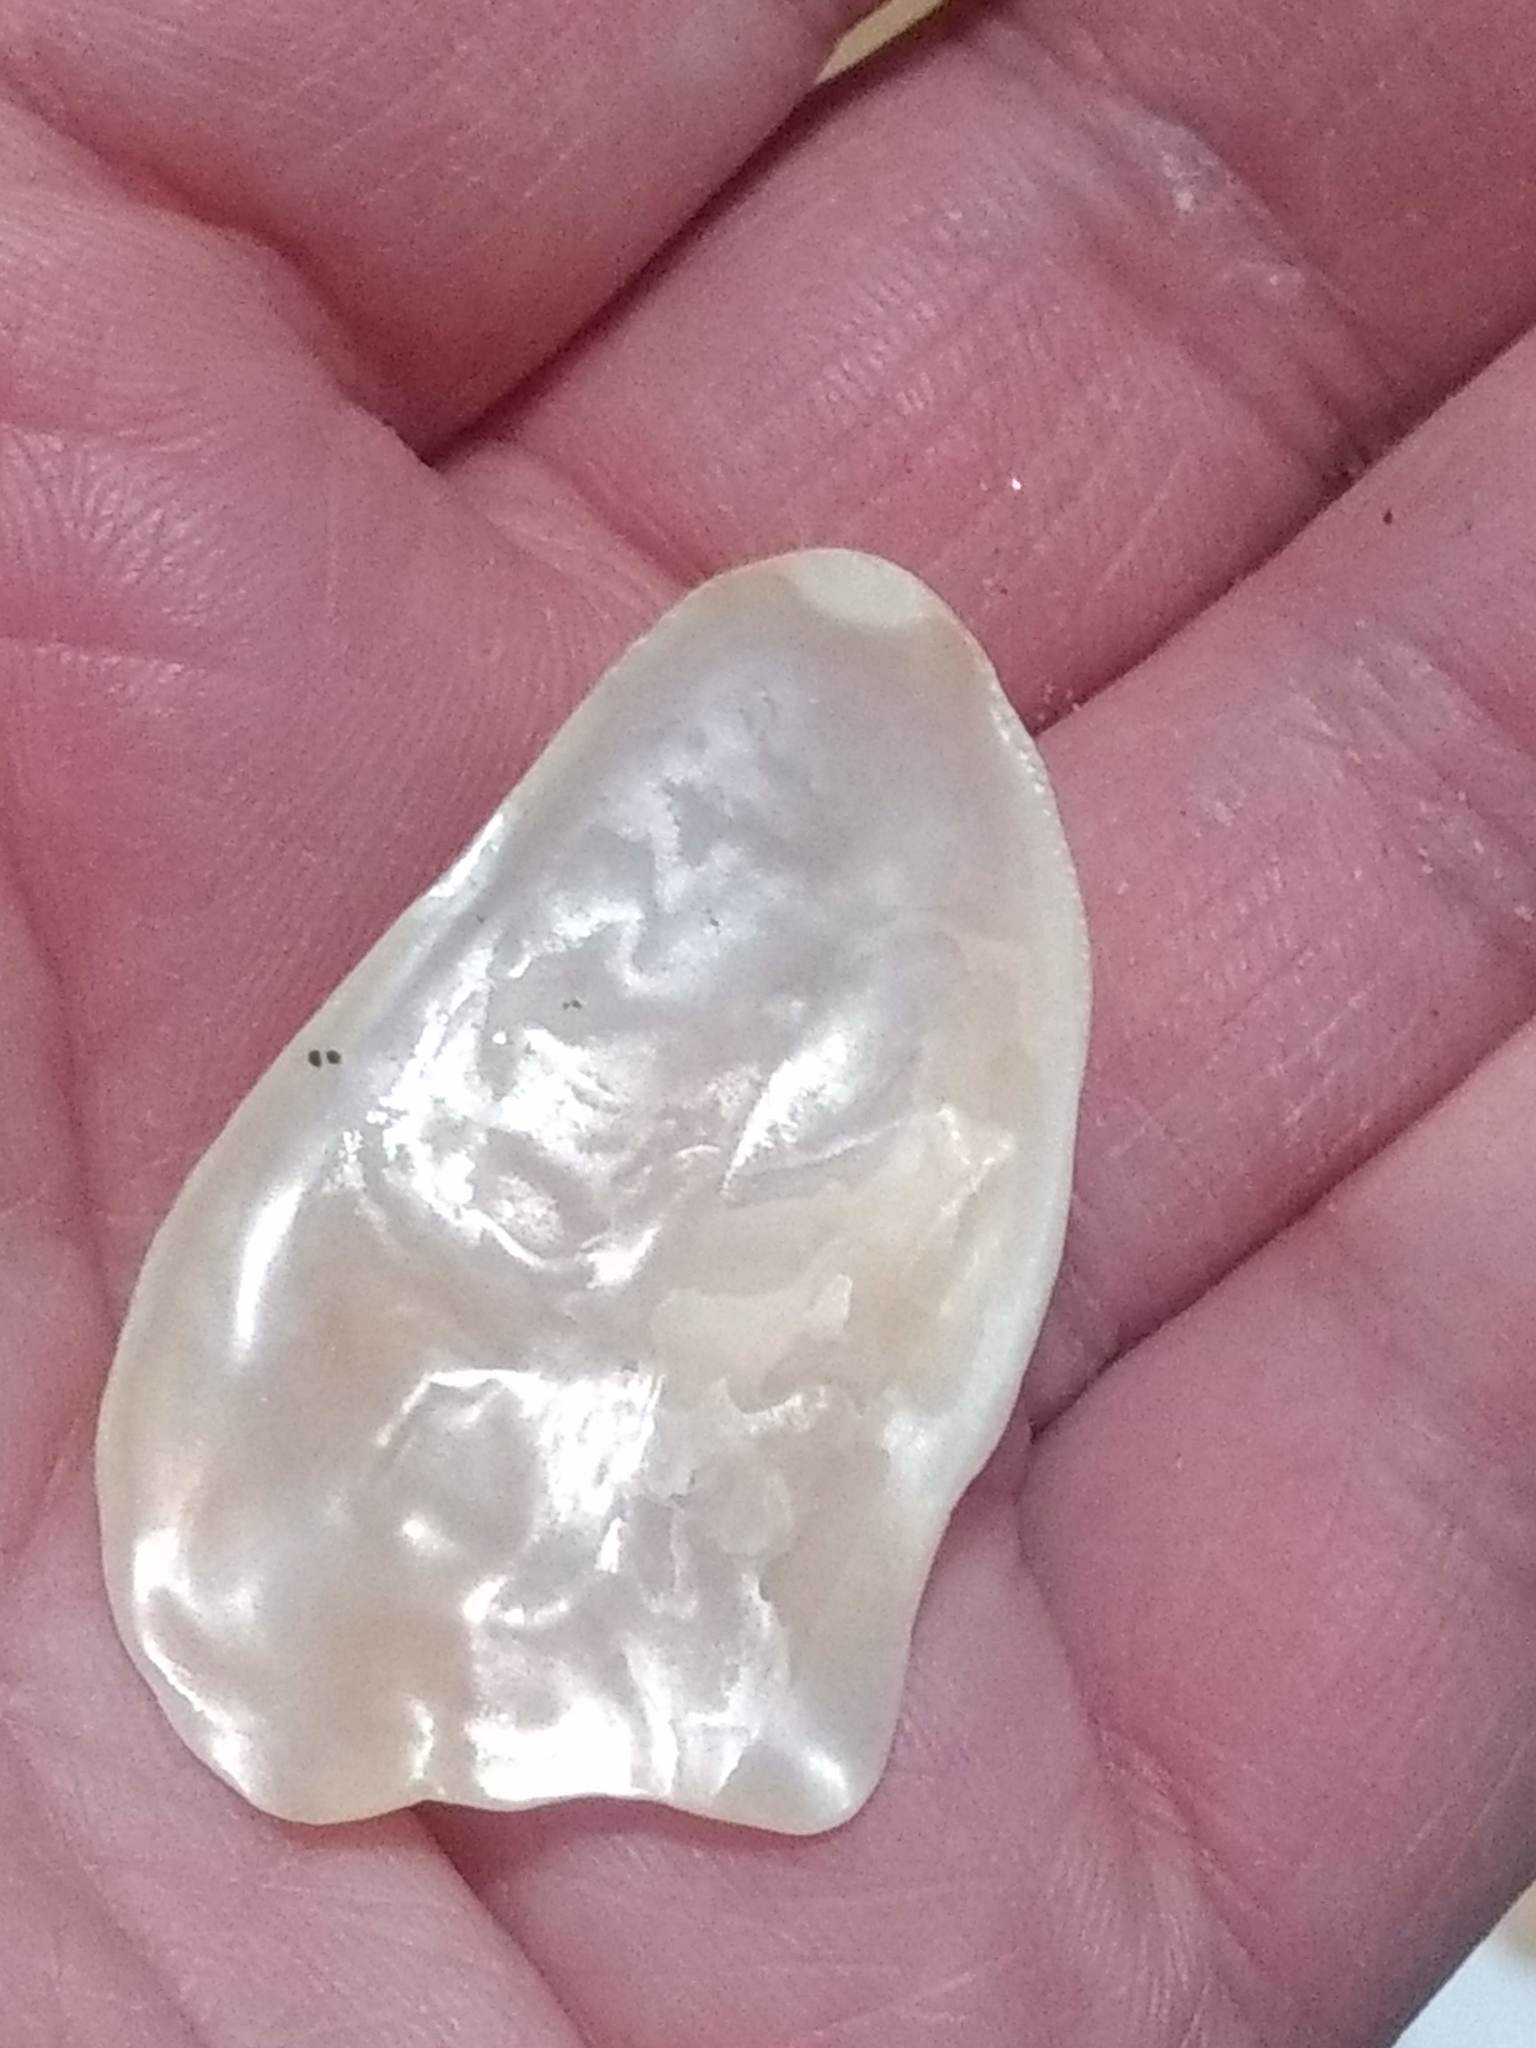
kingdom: Animalia
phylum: Mollusca
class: Bivalvia
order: Ostreida
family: Ostreidae
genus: Ostrea
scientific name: Ostrea lurida
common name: Olympia flat oyster
